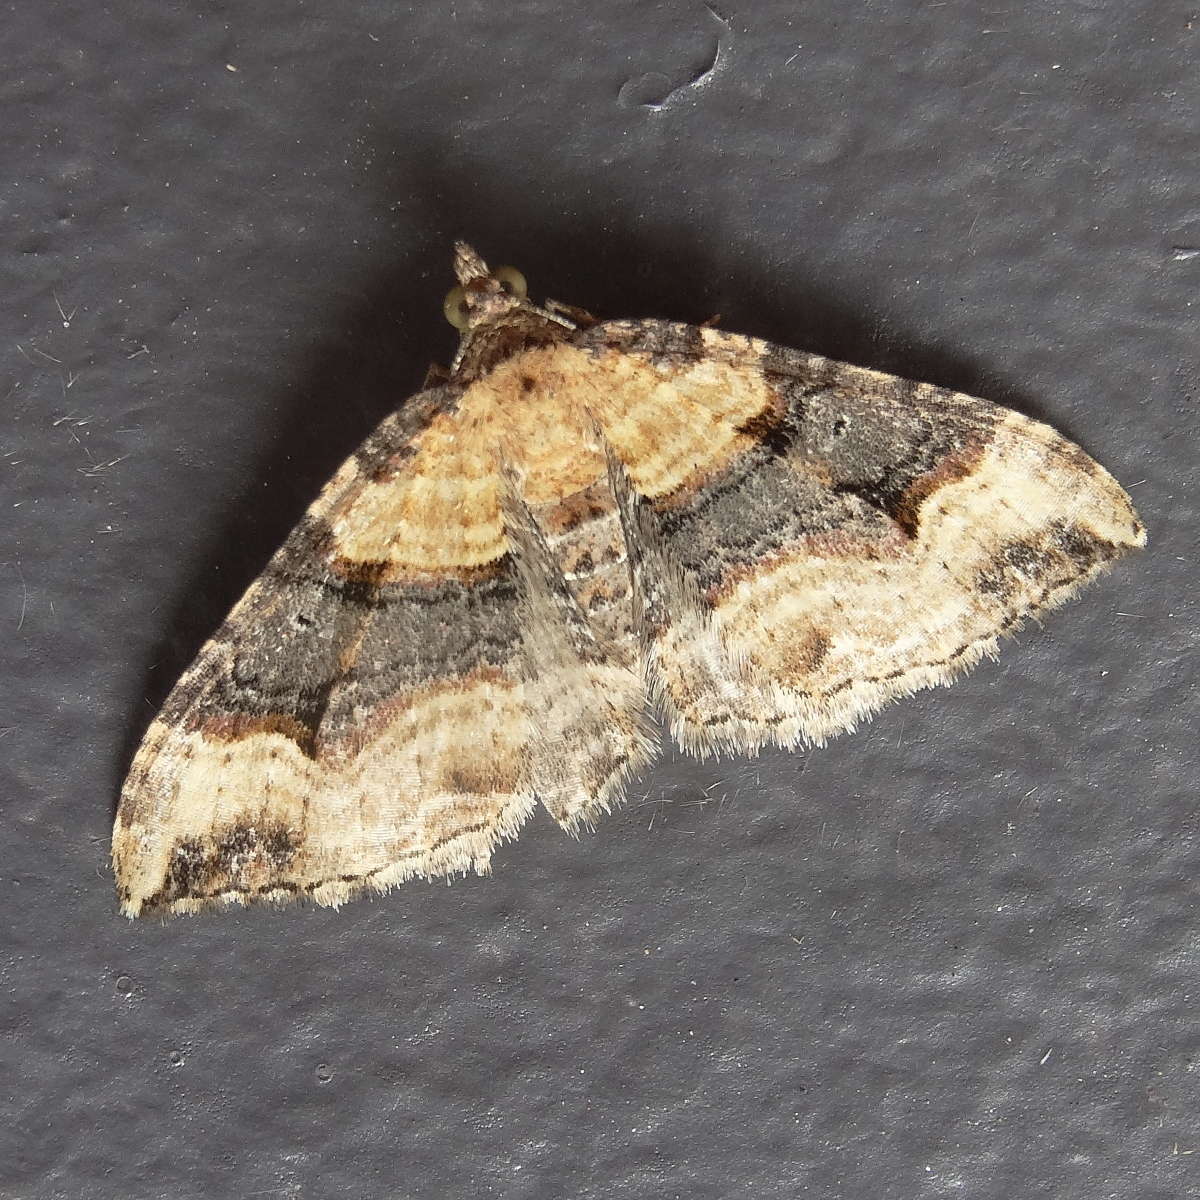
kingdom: Animalia
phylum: Arthropoda
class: Insecta
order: Lepidoptera
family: Geometridae
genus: Epyaxa
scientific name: Epyaxa subidaria
